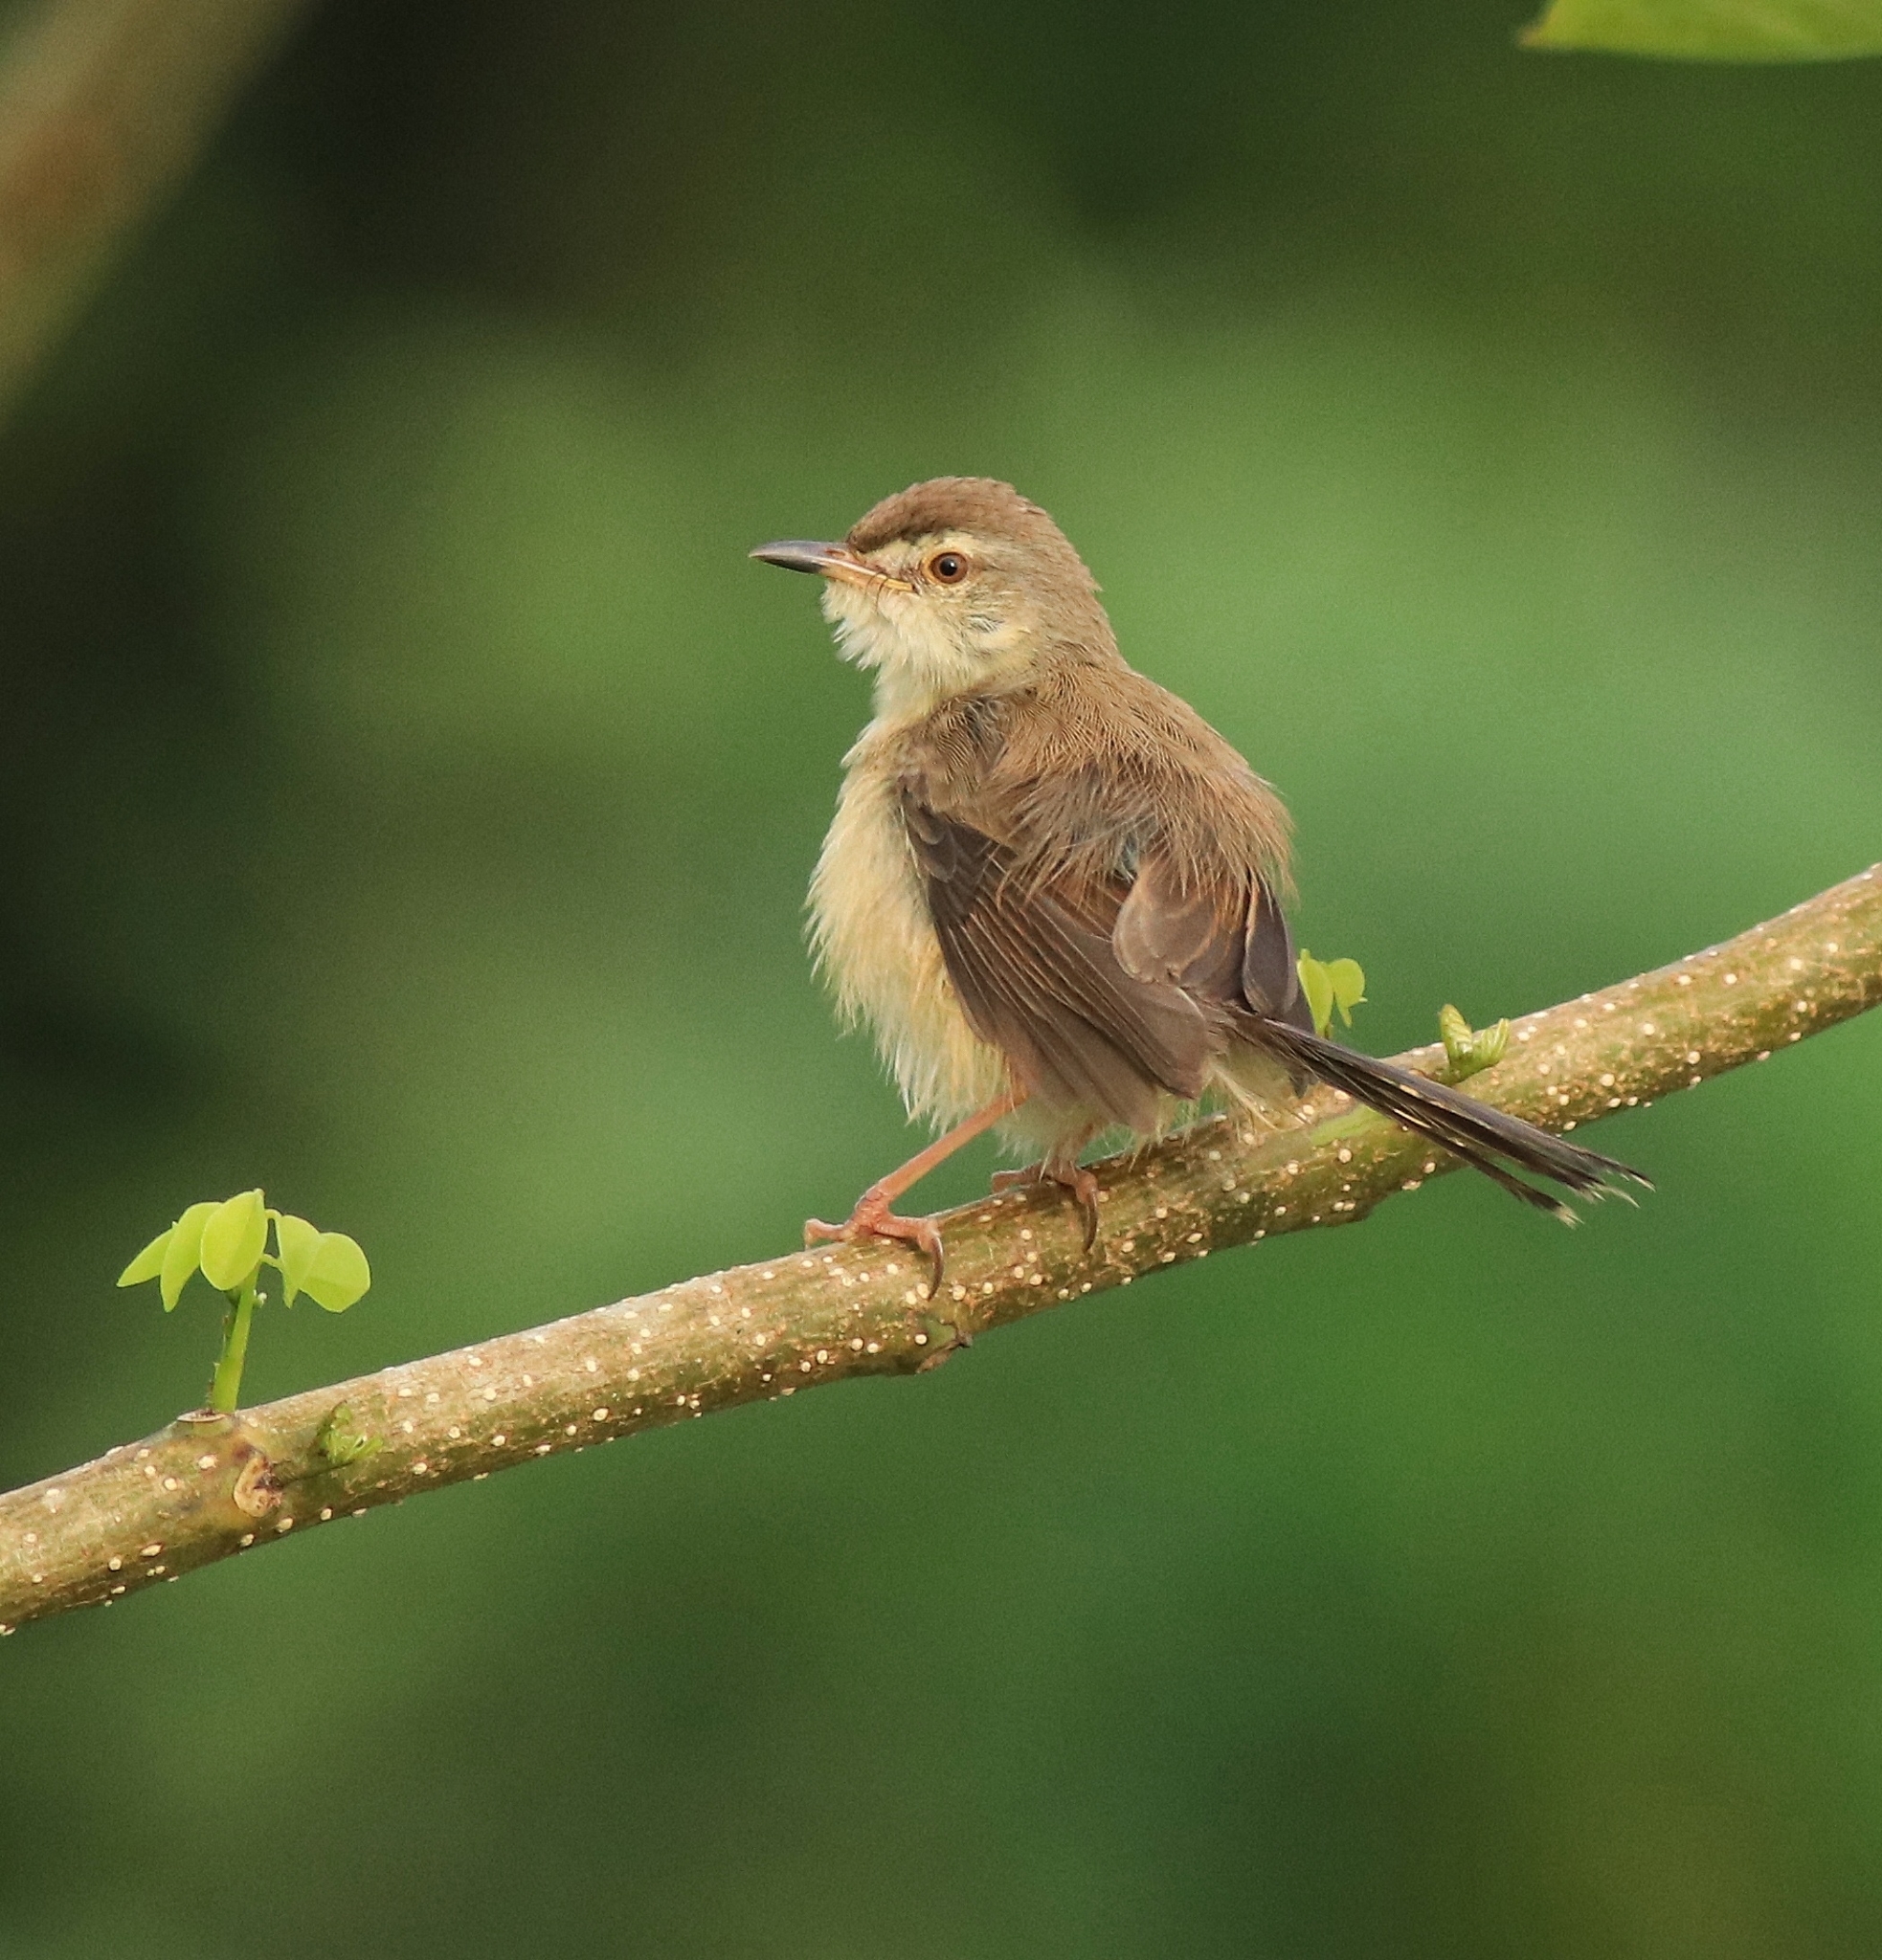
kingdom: Animalia
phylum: Chordata
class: Aves
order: Passeriformes
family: Cisticolidae
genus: Prinia
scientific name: Prinia inornata
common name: Plain prinia
